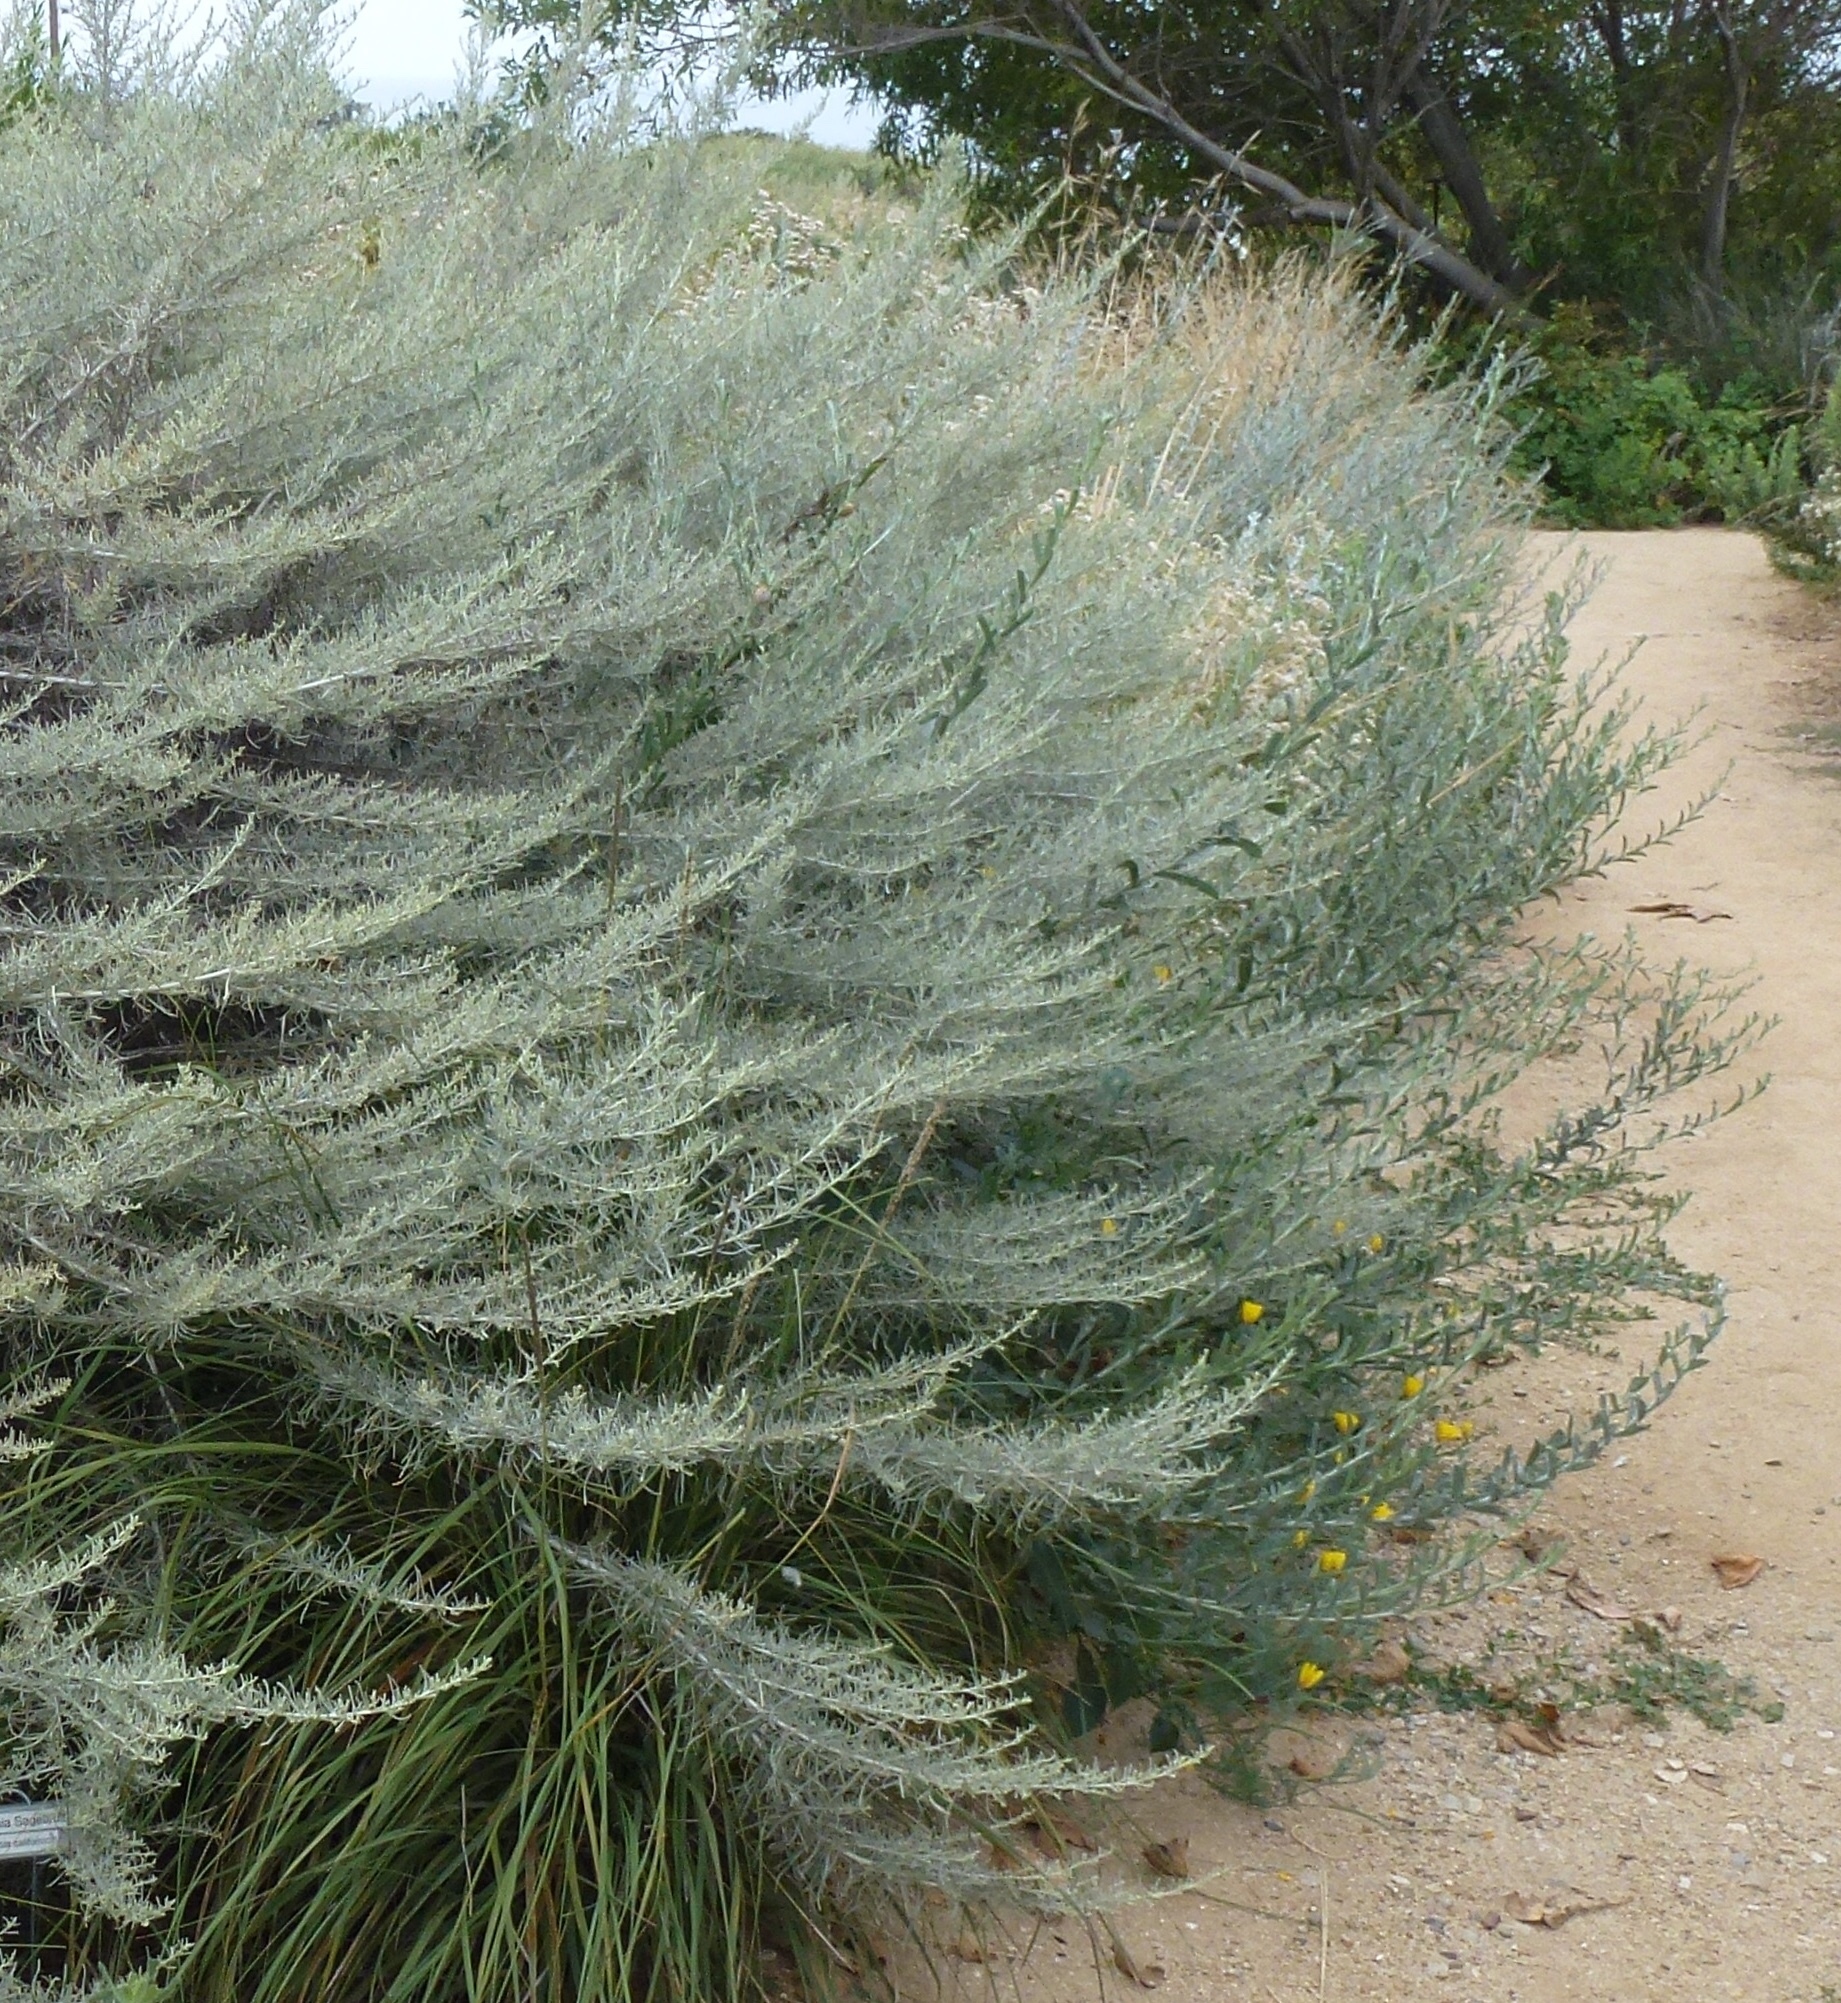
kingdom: Plantae
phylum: Tracheophyta
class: Magnoliopsida
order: Asterales
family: Asteraceae
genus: Artemisia
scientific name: Artemisia californica
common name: California sagebrush
